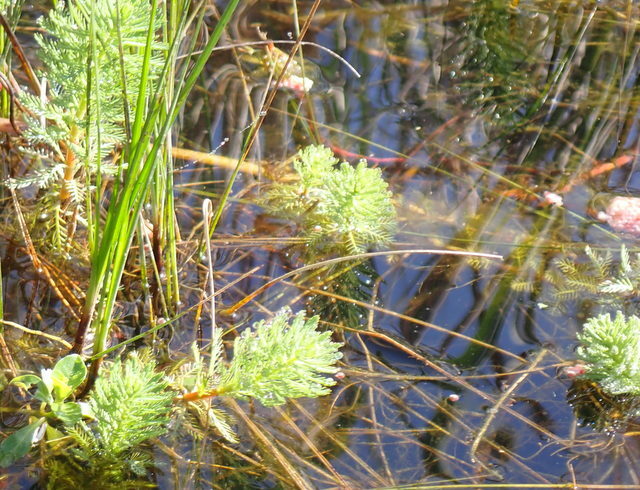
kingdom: Plantae
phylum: Tracheophyta
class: Magnoliopsida
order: Saxifragales
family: Haloragaceae
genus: Myriophyllum
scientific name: Myriophyllum aquaticum
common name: Parrot's feather
